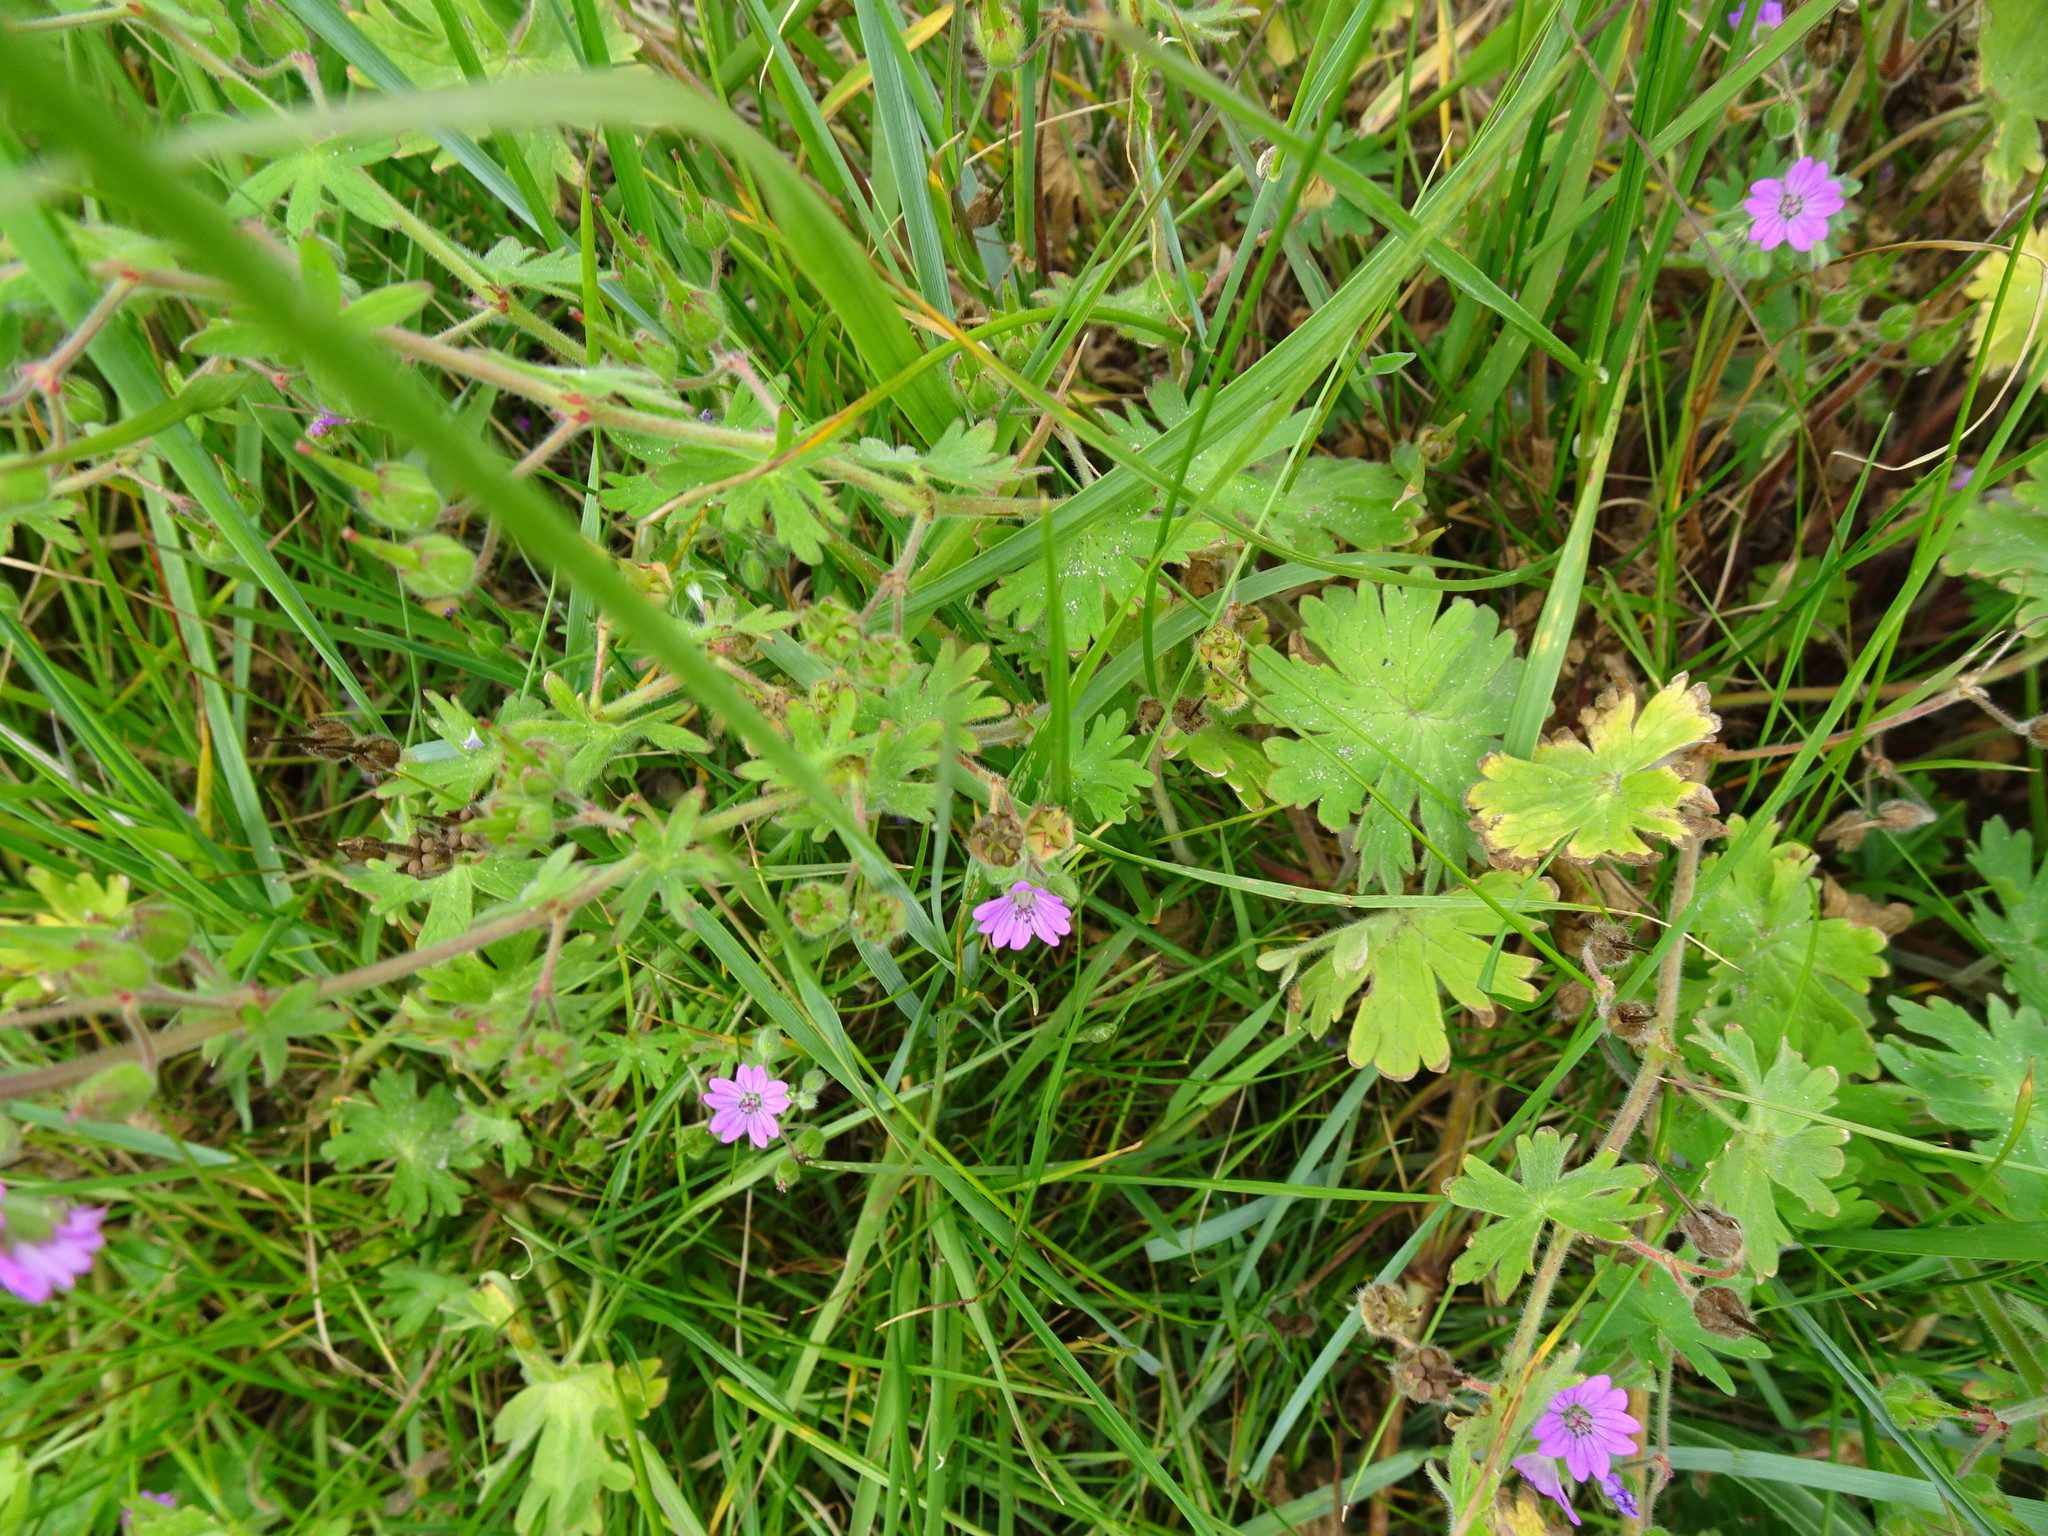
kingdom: Plantae
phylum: Tracheophyta
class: Magnoliopsida
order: Geraniales
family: Geraniaceae
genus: Geranium
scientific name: Geranium molle
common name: Dove's-foot crane's-bill
